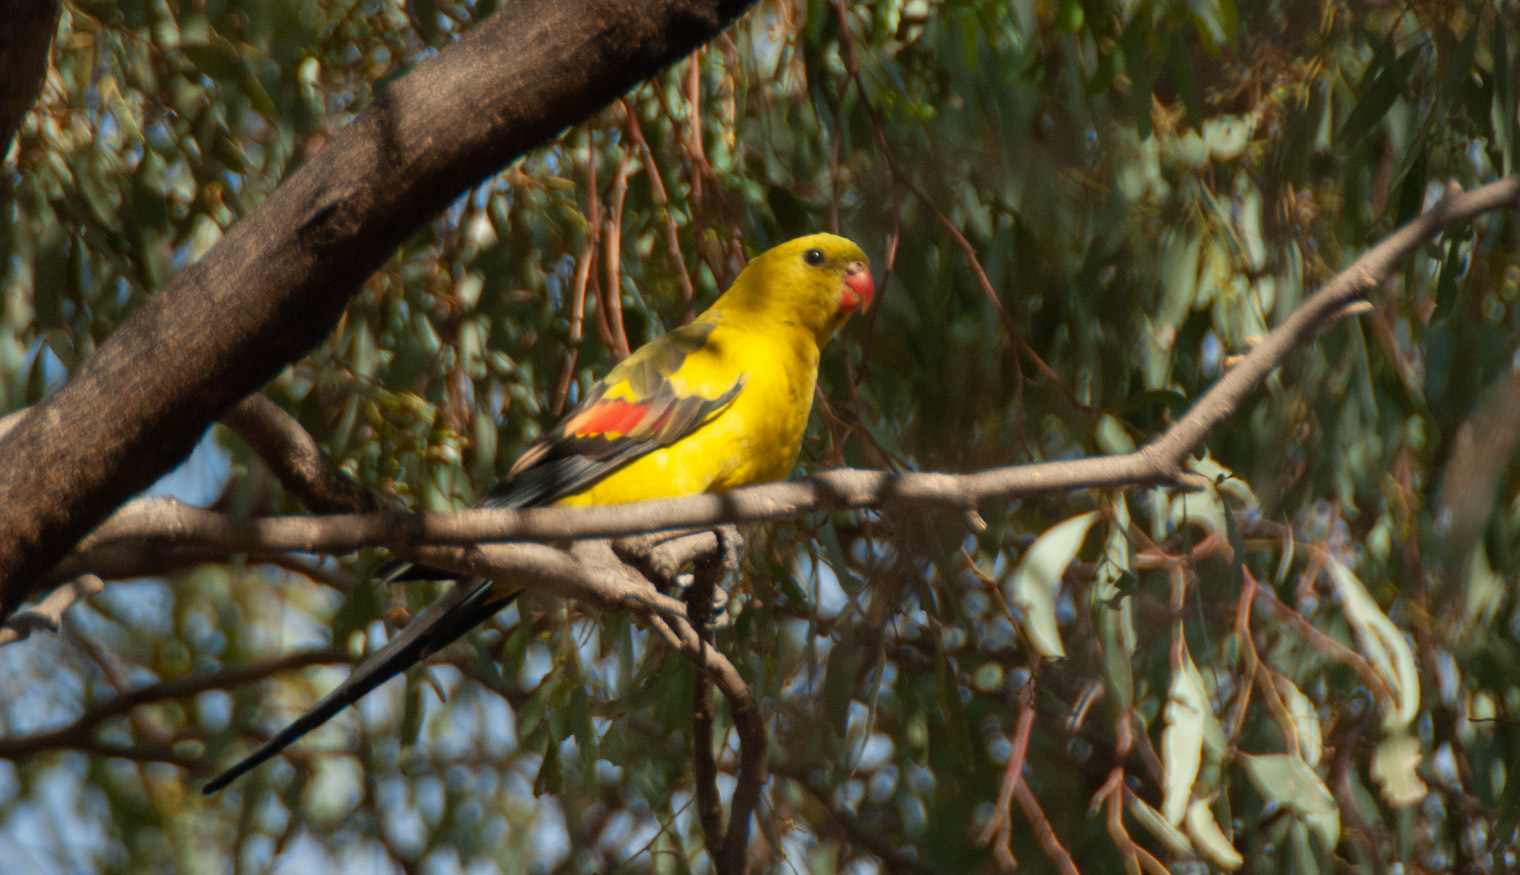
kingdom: Animalia
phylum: Chordata
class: Aves
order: Psittaciformes
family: Psittacidae
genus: Polytelis
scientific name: Polytelis anthopeplus
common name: Regent parrot
